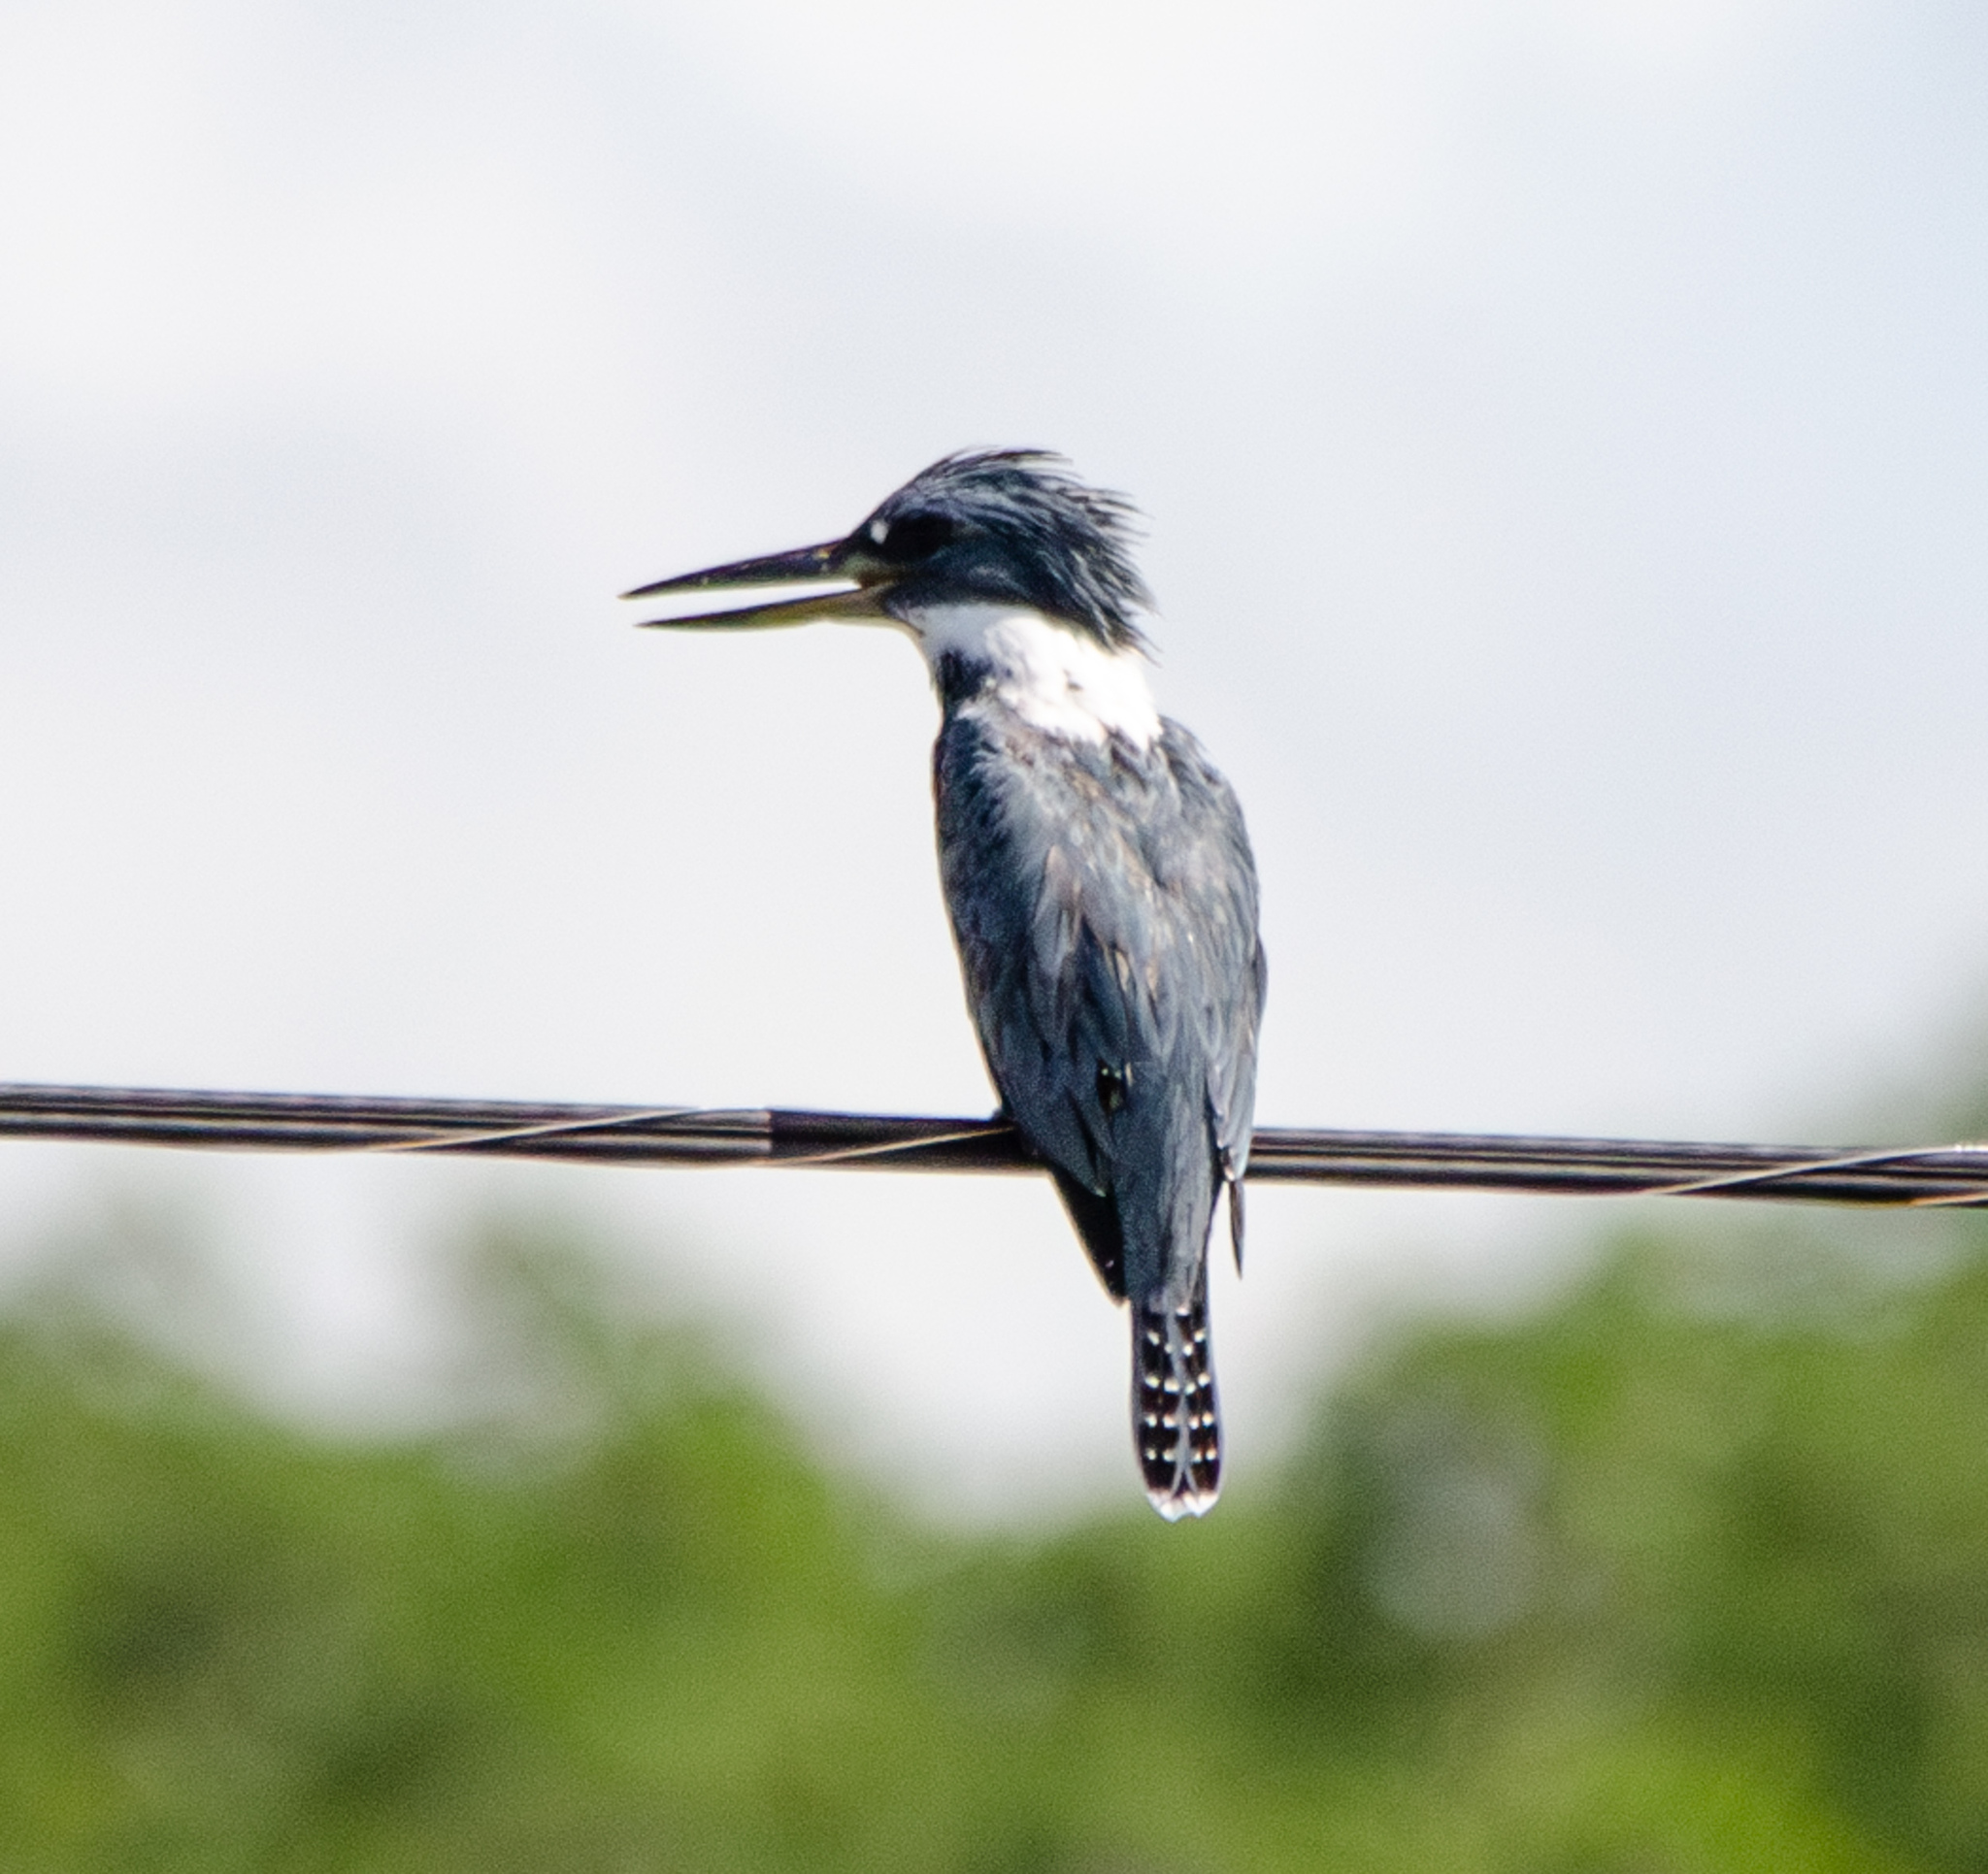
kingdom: Animalia
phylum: Chordata
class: Aves
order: Coraciiformes
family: Alcedinidae
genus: Megaceryle
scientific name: Megaceryle torquata
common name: Ringed kingfisher
